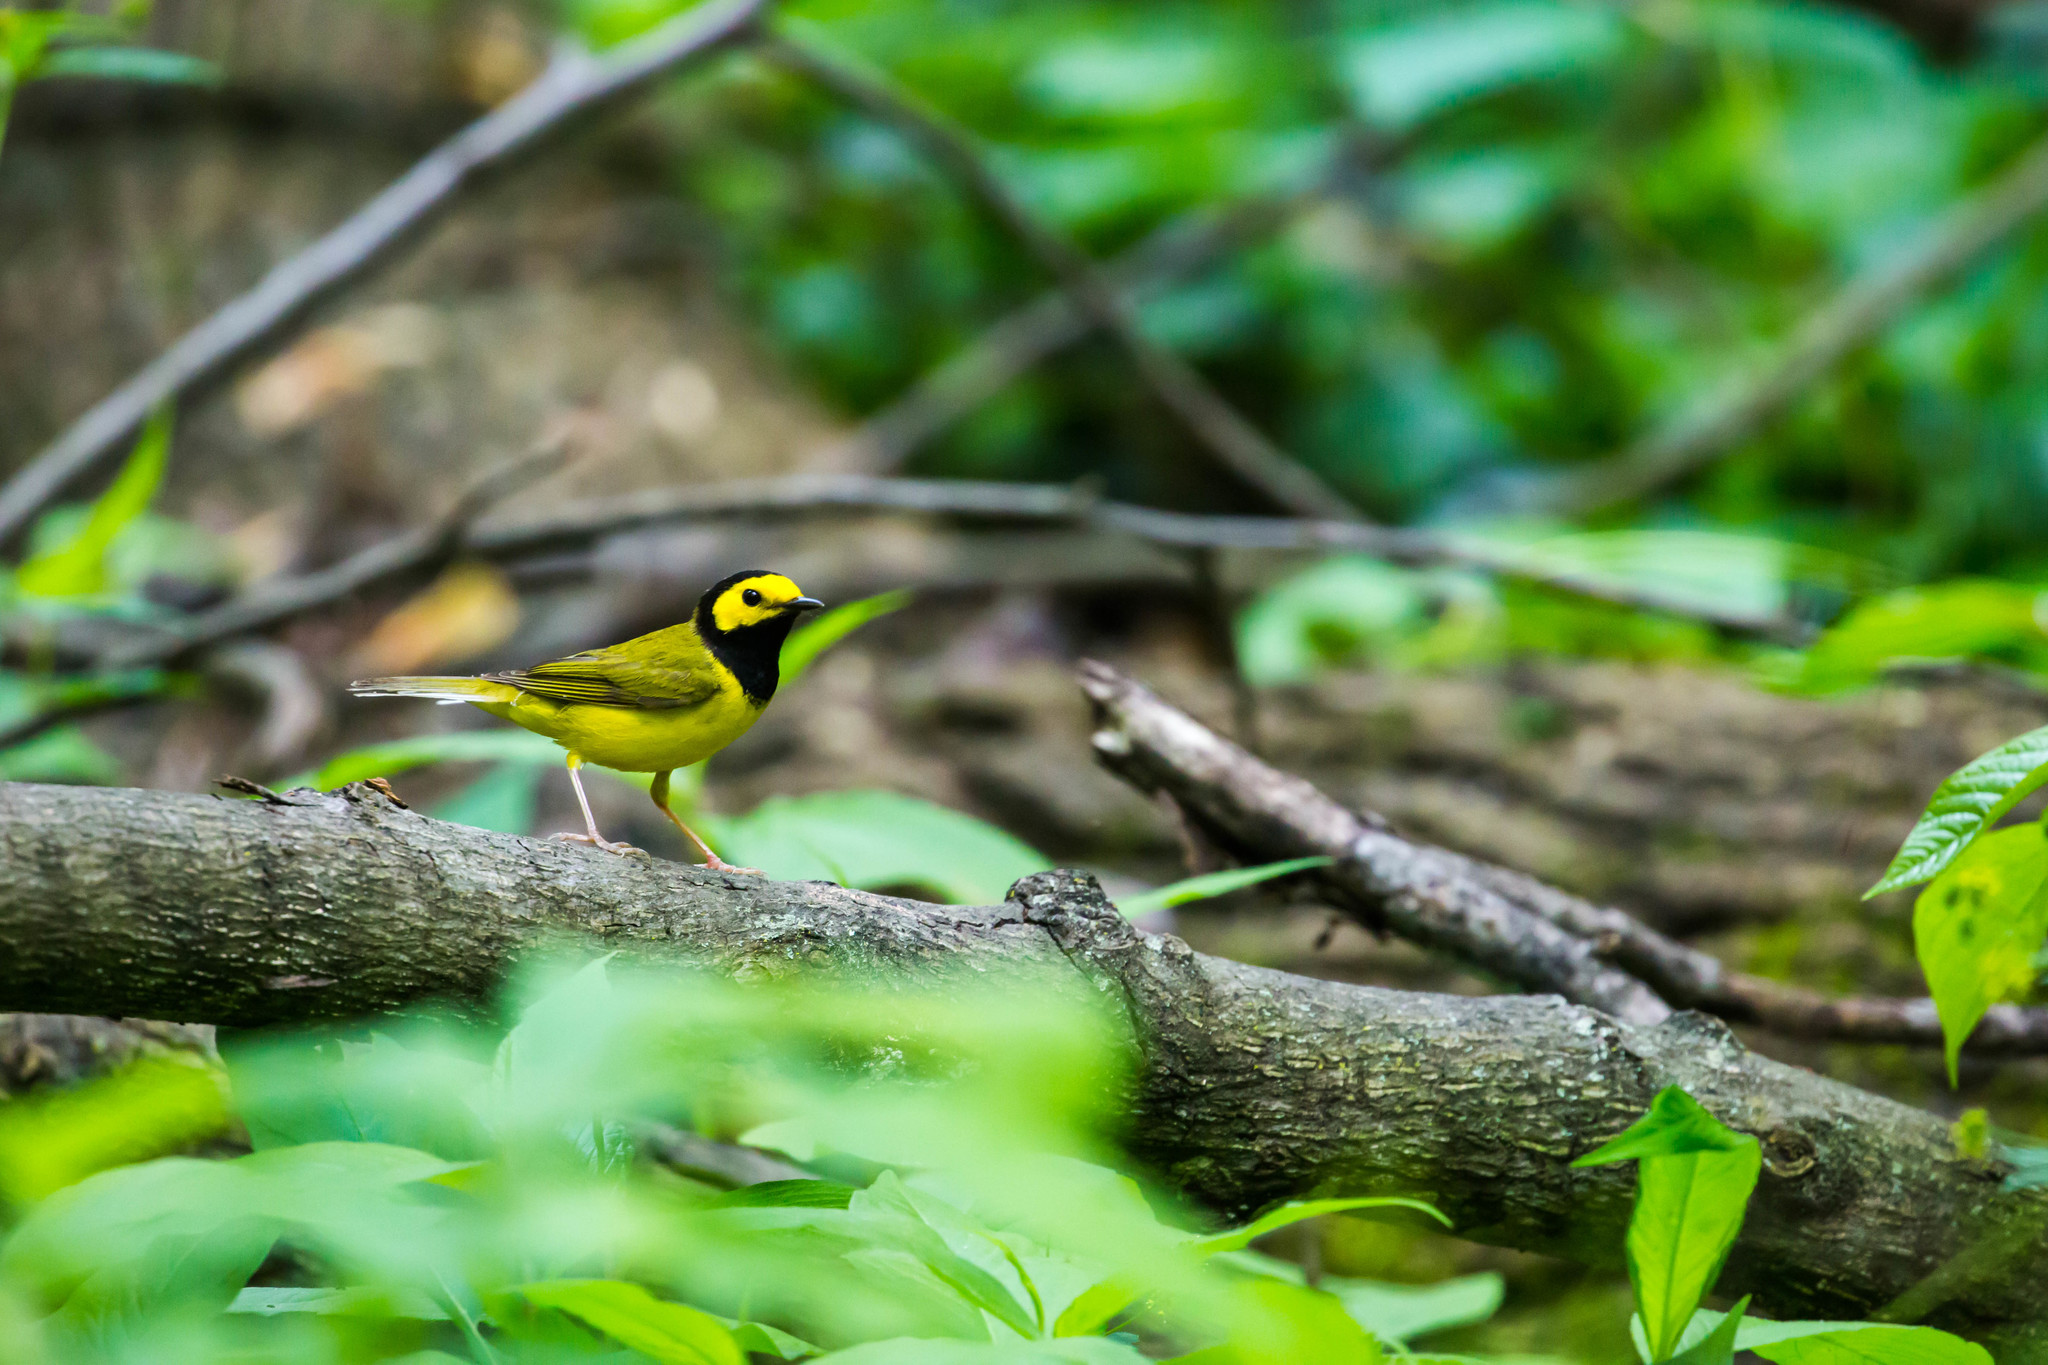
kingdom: Animalia
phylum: Chordata
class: Aves
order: Passeriformes
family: Parulidae
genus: Setophaga
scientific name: Setophaga citrina
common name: Hooded warbler
